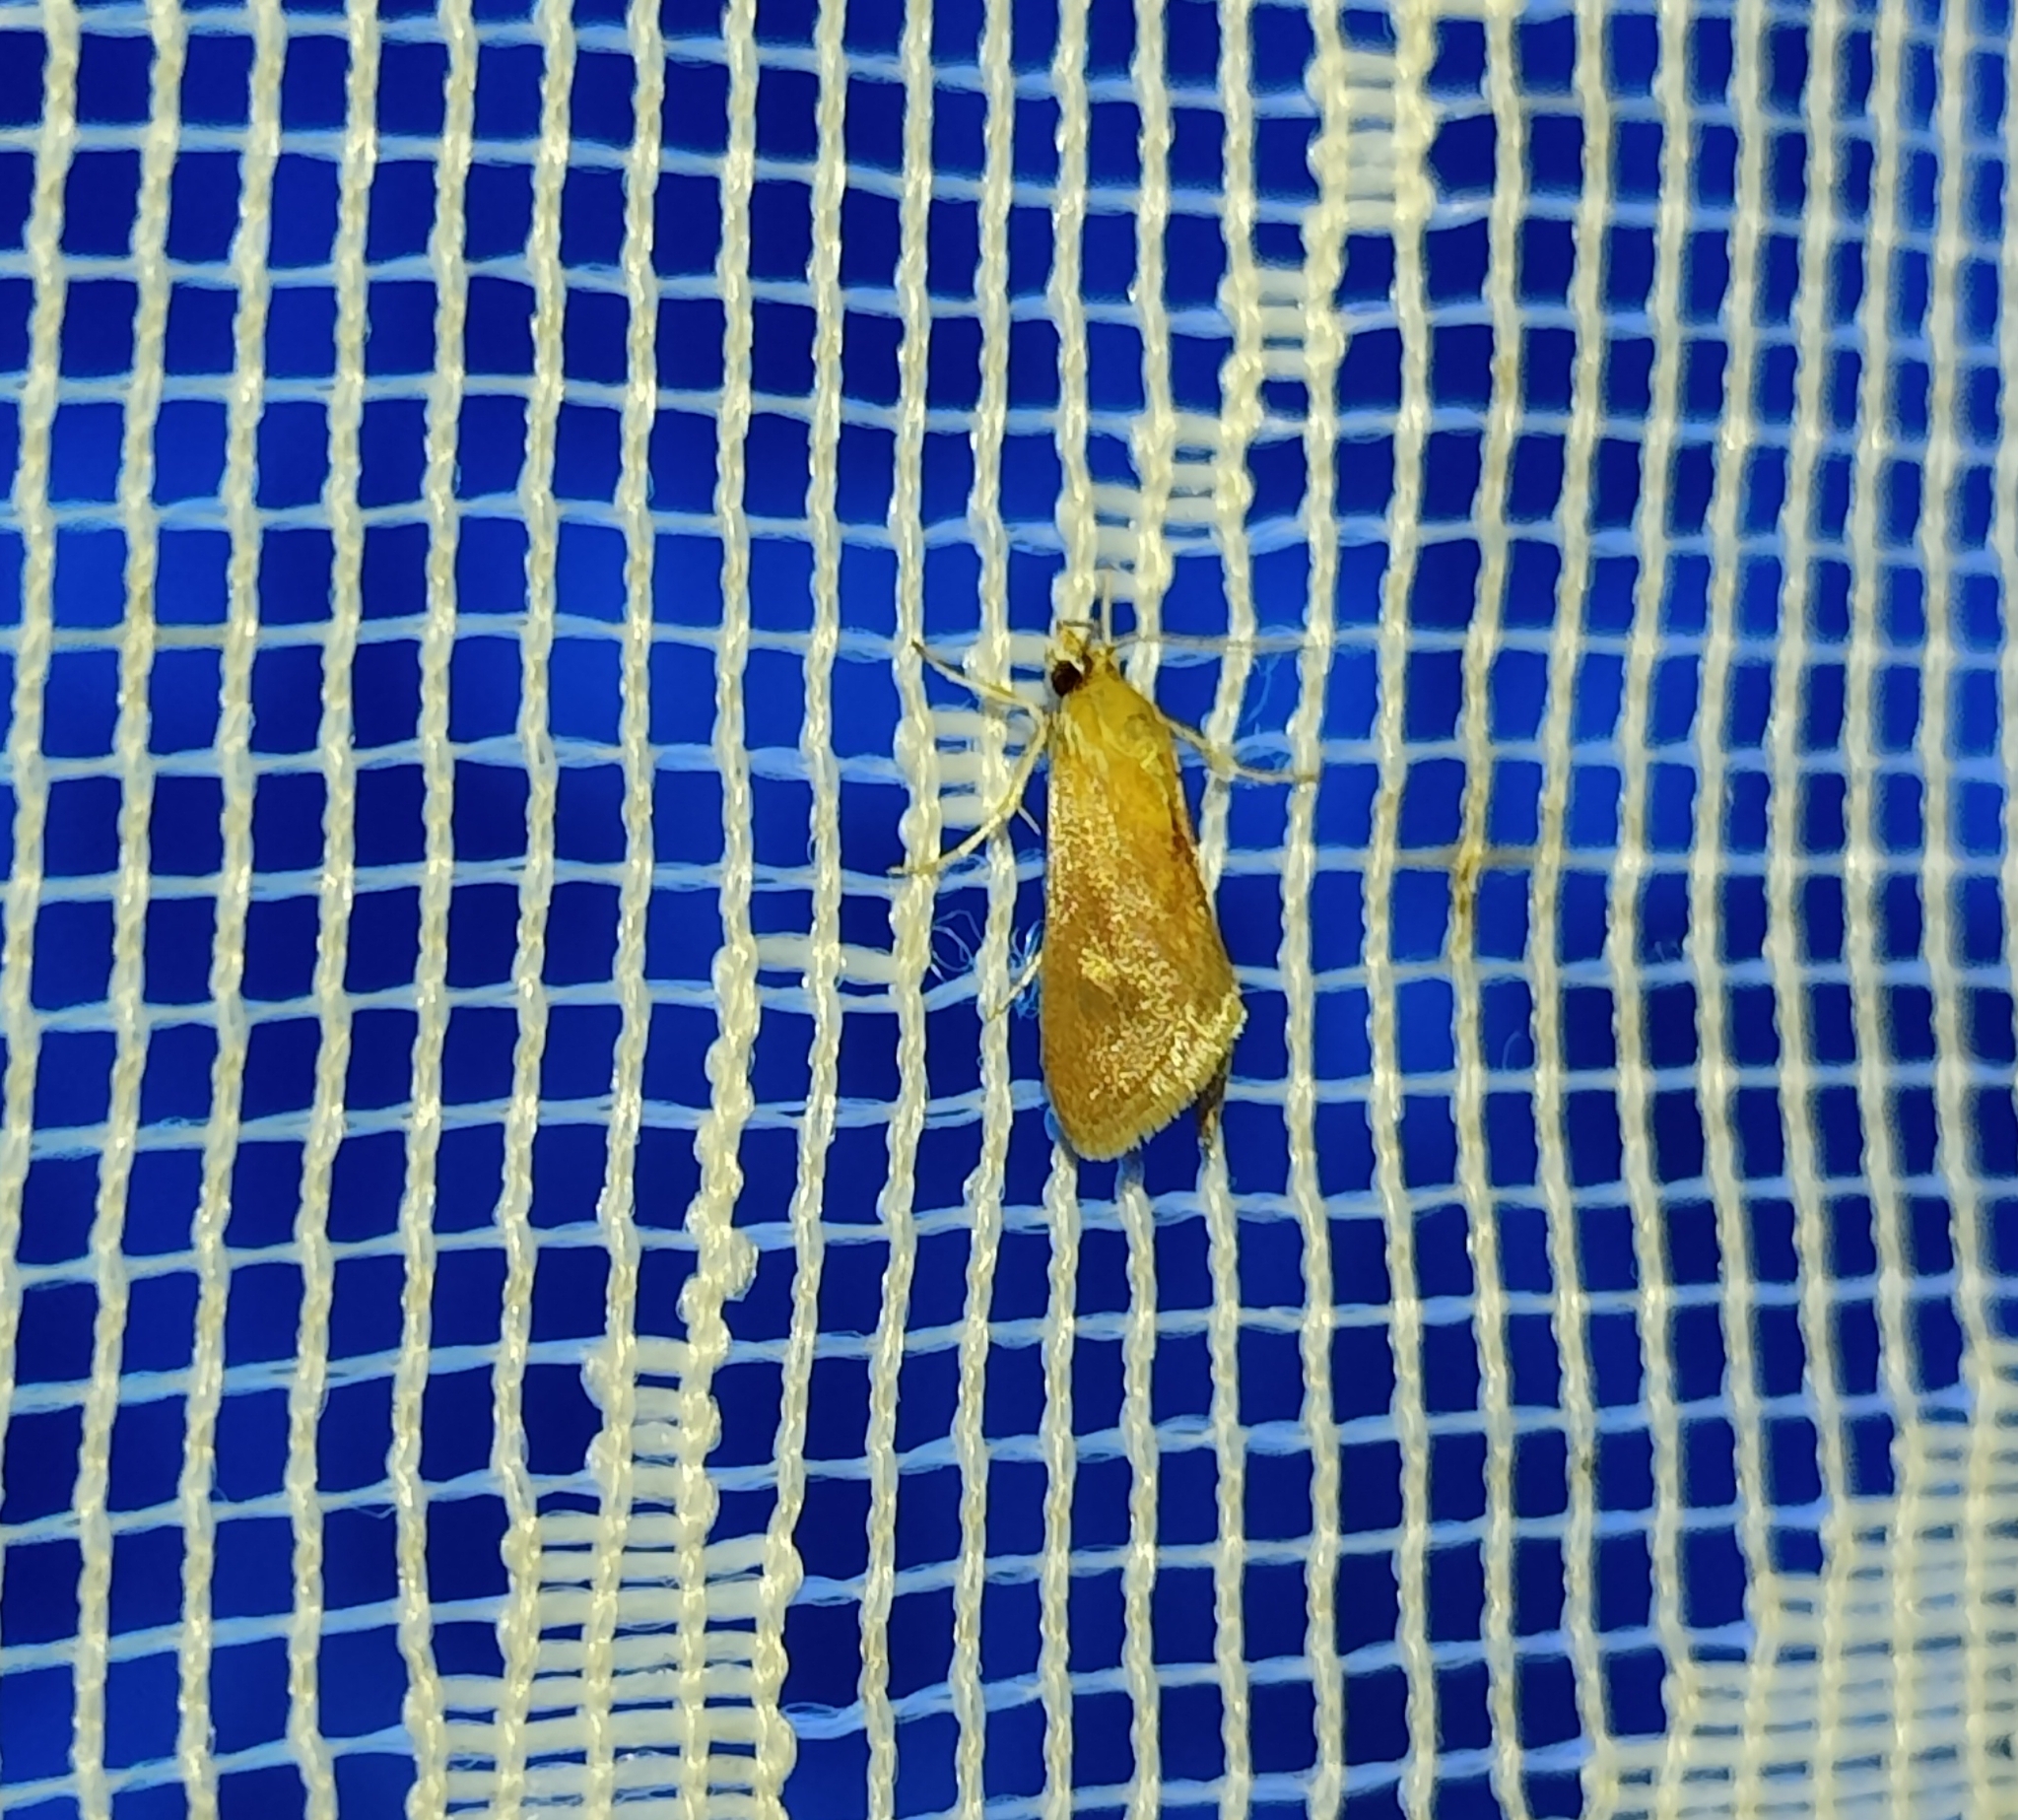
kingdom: Animalia
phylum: Arthropoda
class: Insecta
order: Lepidoptera
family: Crambidae
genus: Tegostoma
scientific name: Tegostoma Cataonia erubescens
